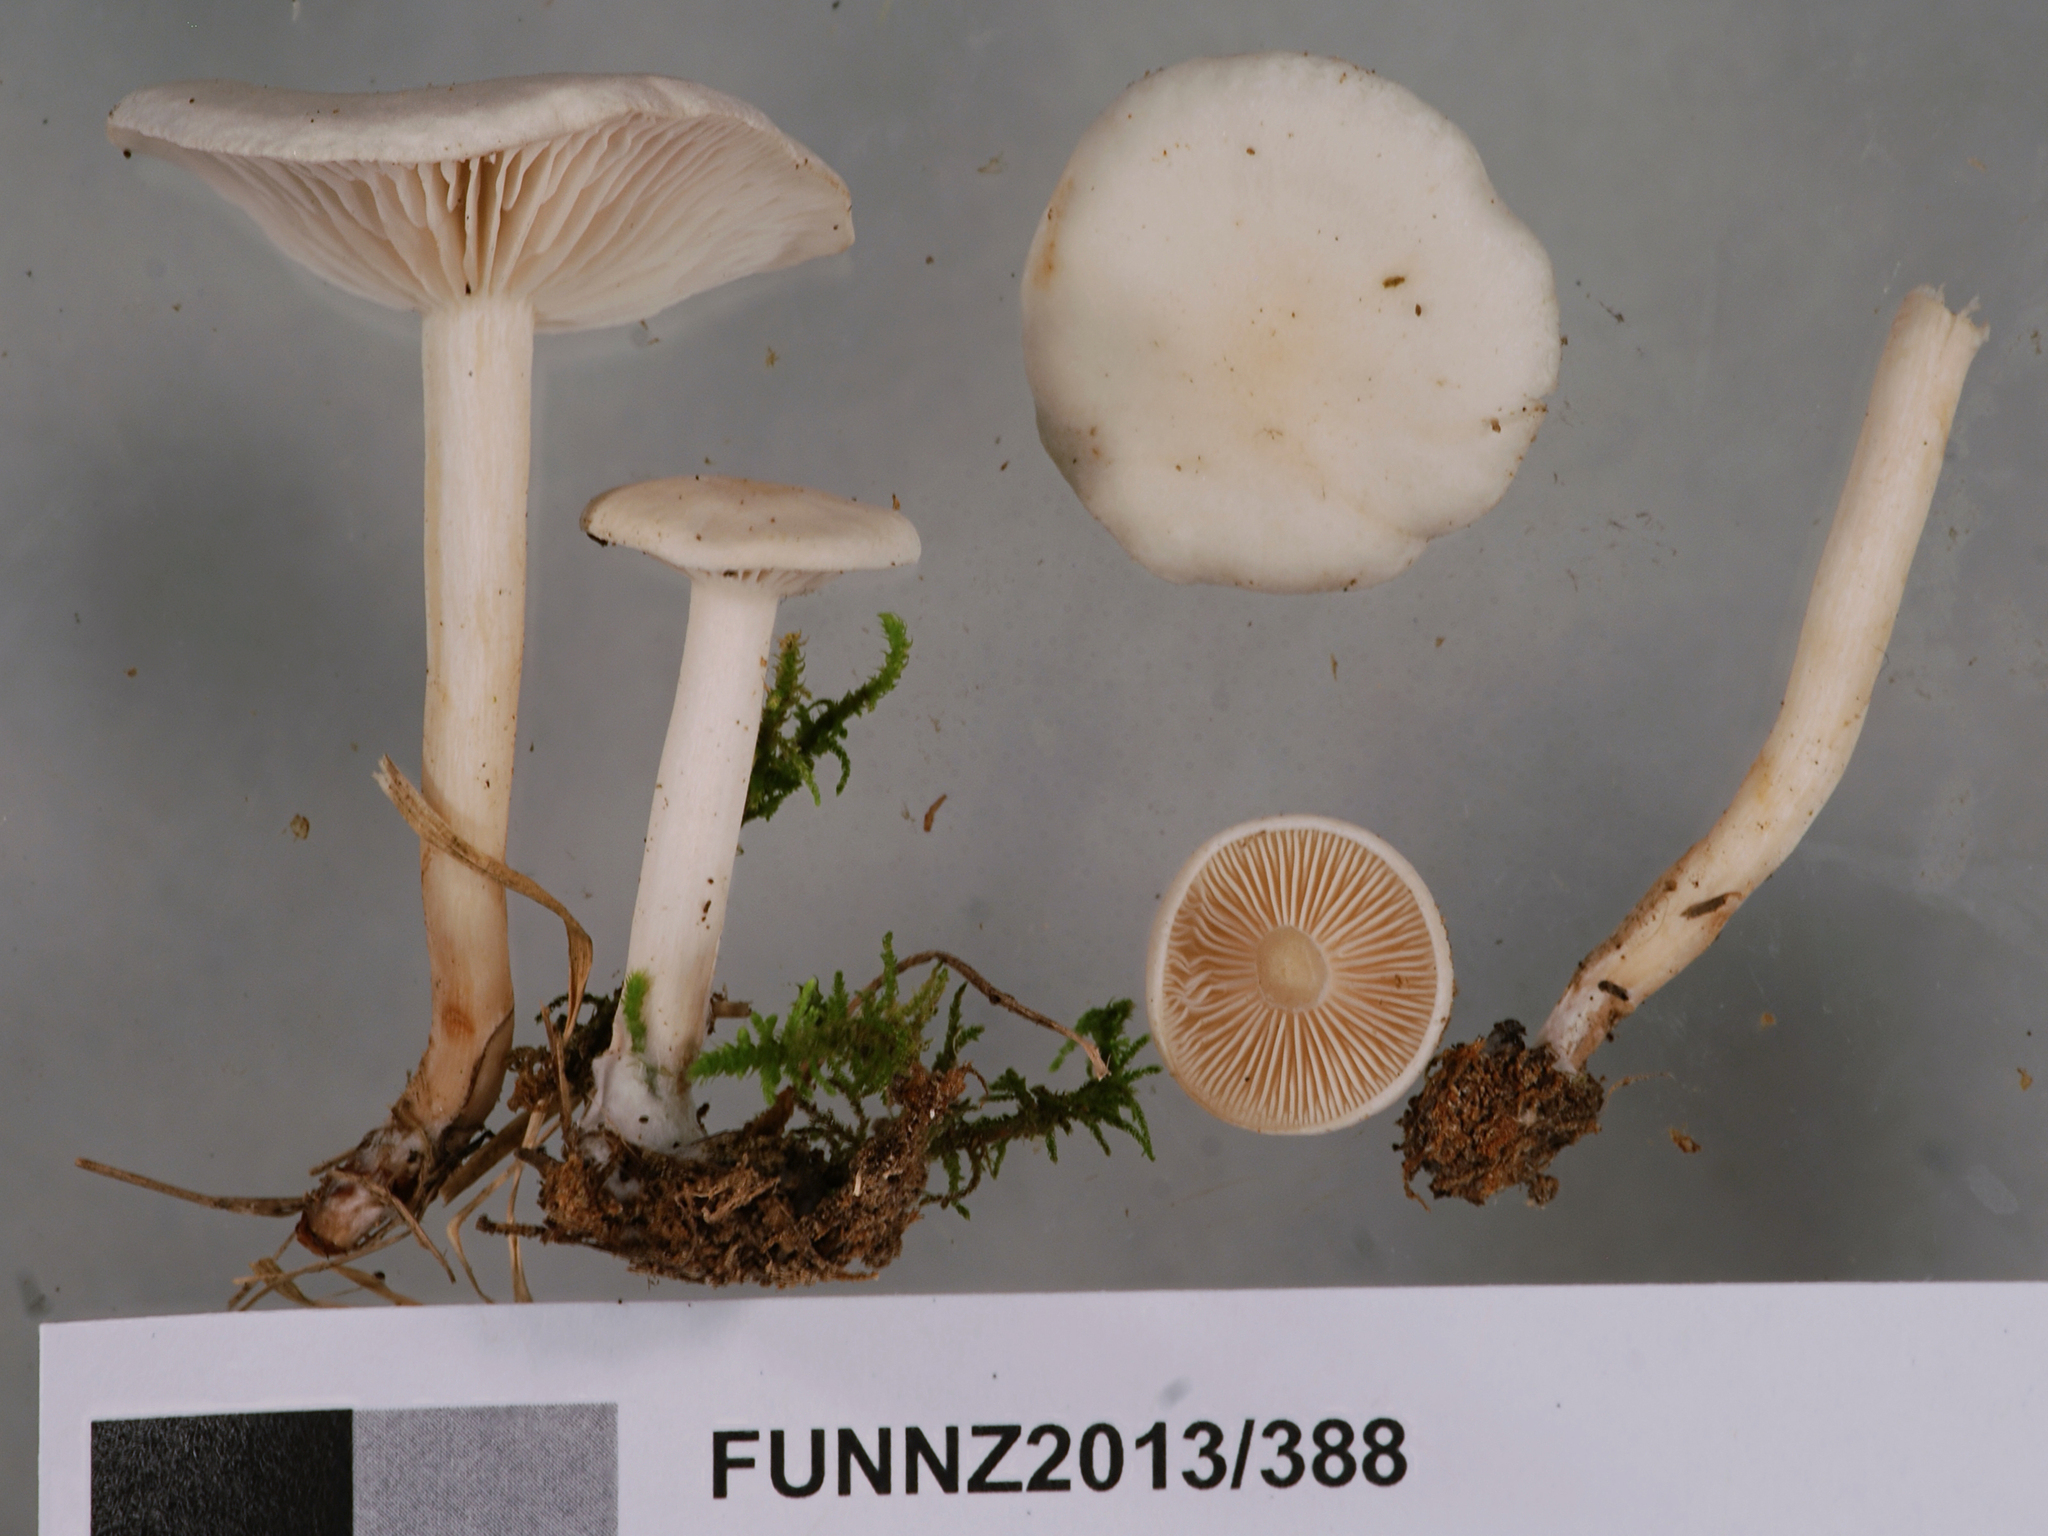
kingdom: Fungi
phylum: Basidiomycota
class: Agaricomycetes
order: Agaricales
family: Tricholomataceae
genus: Collybia
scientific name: Collybia
